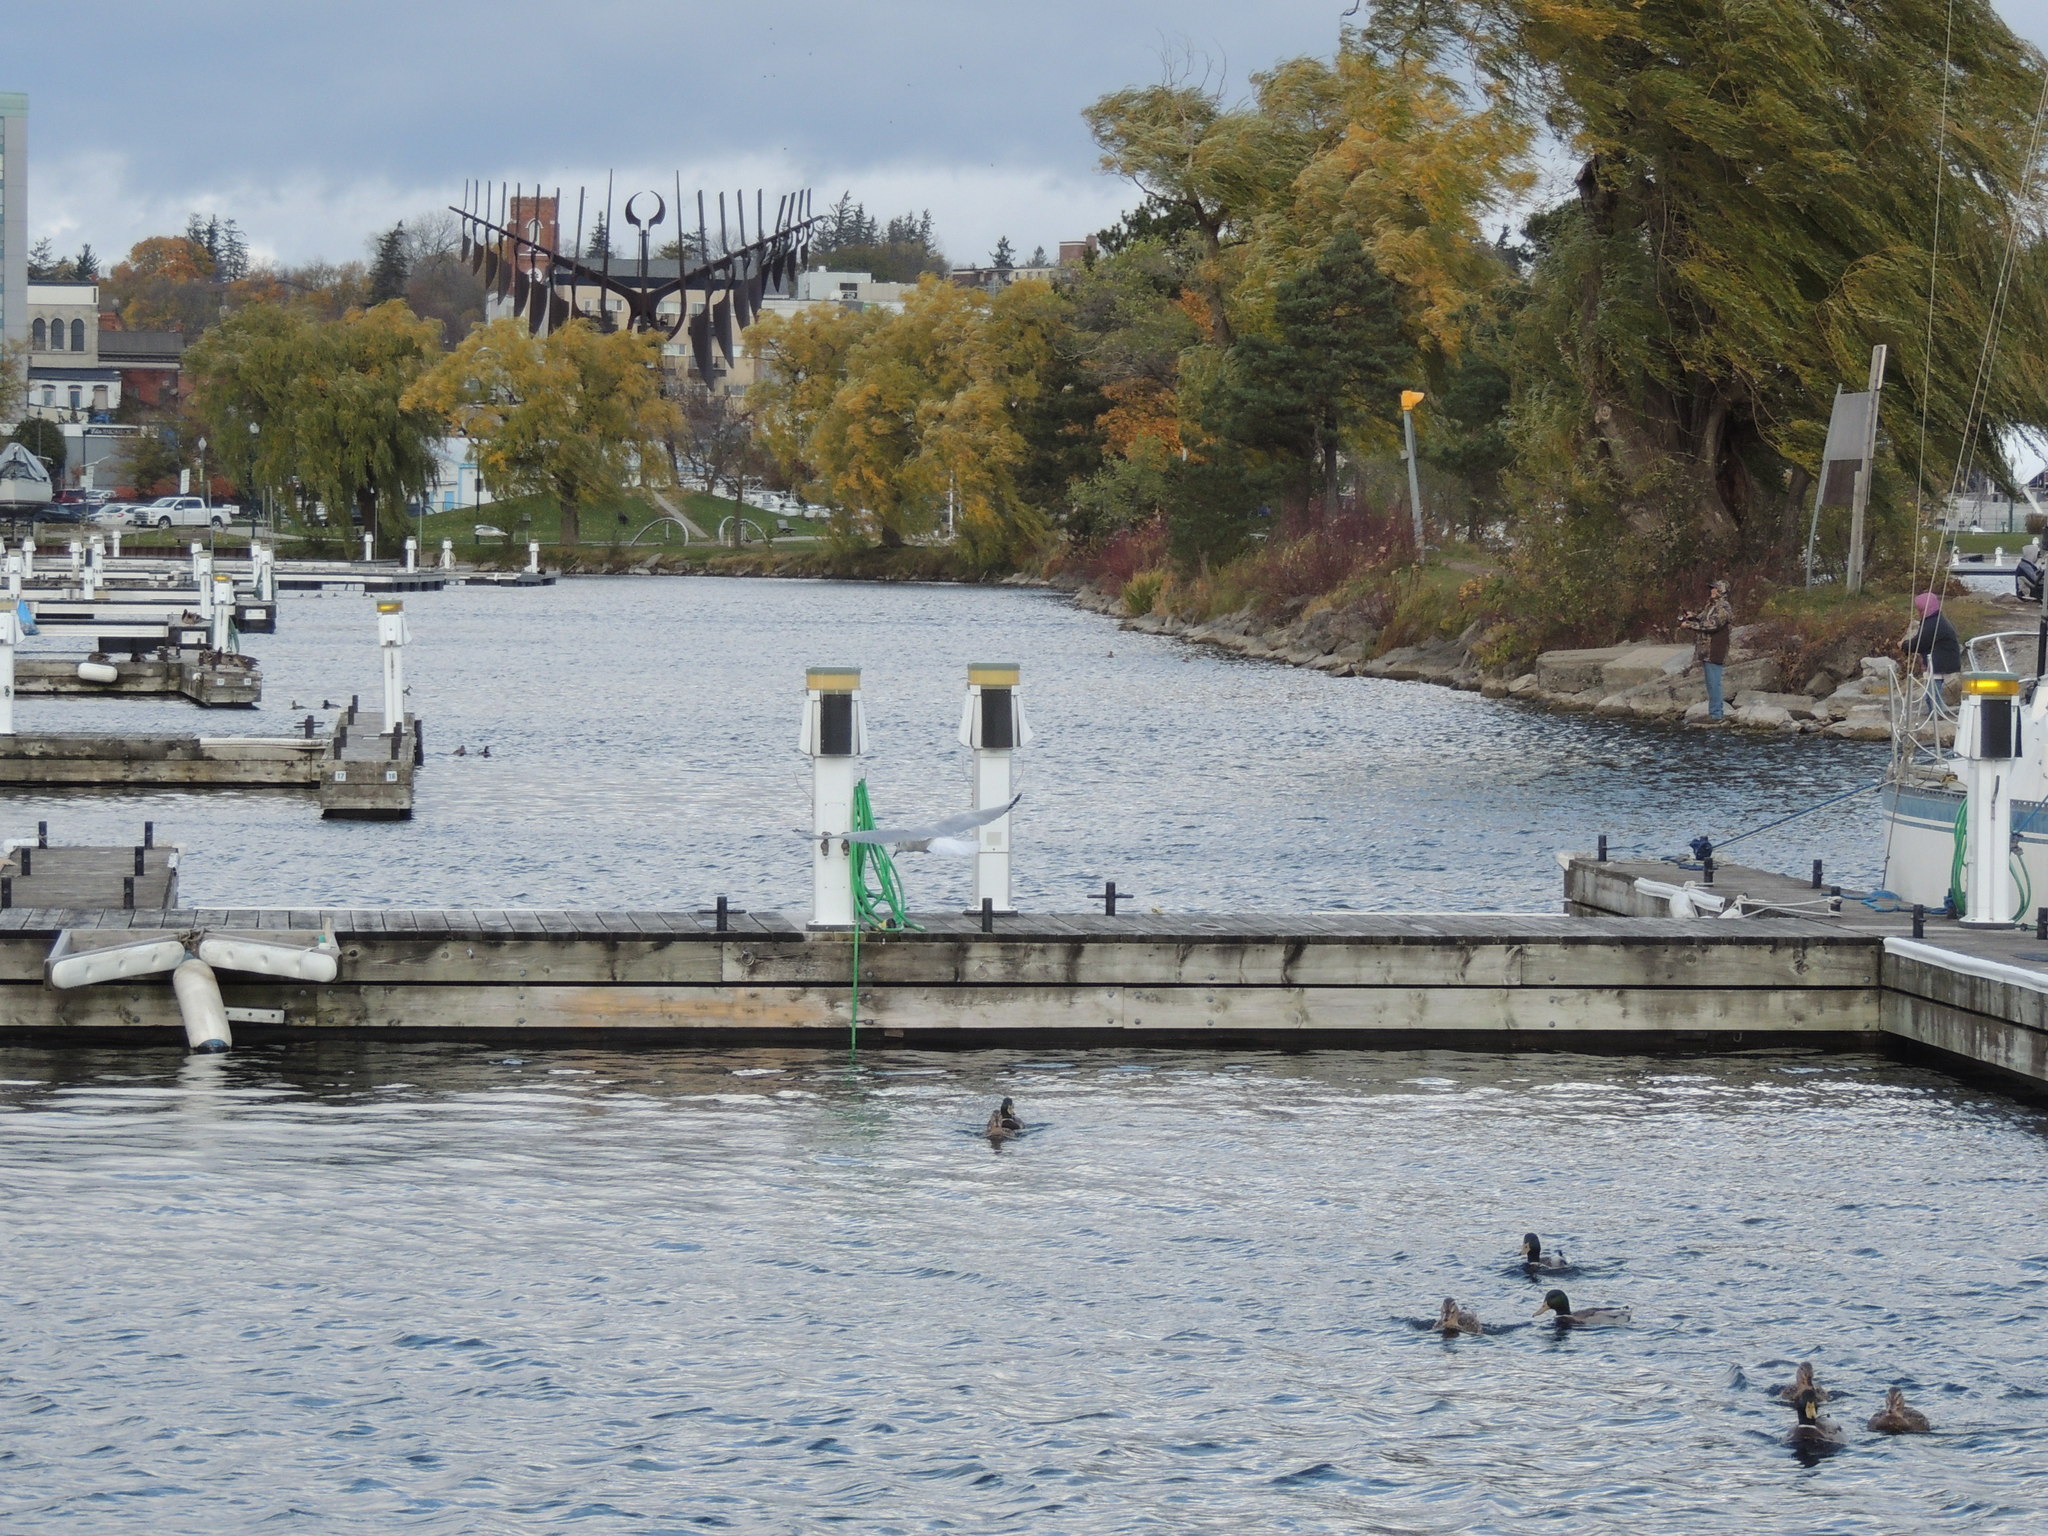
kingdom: Animalia
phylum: Chordata
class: Aves
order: Anseriformes
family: Anatidae
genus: Anas
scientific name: Anas platyrhynchos
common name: Mallard
